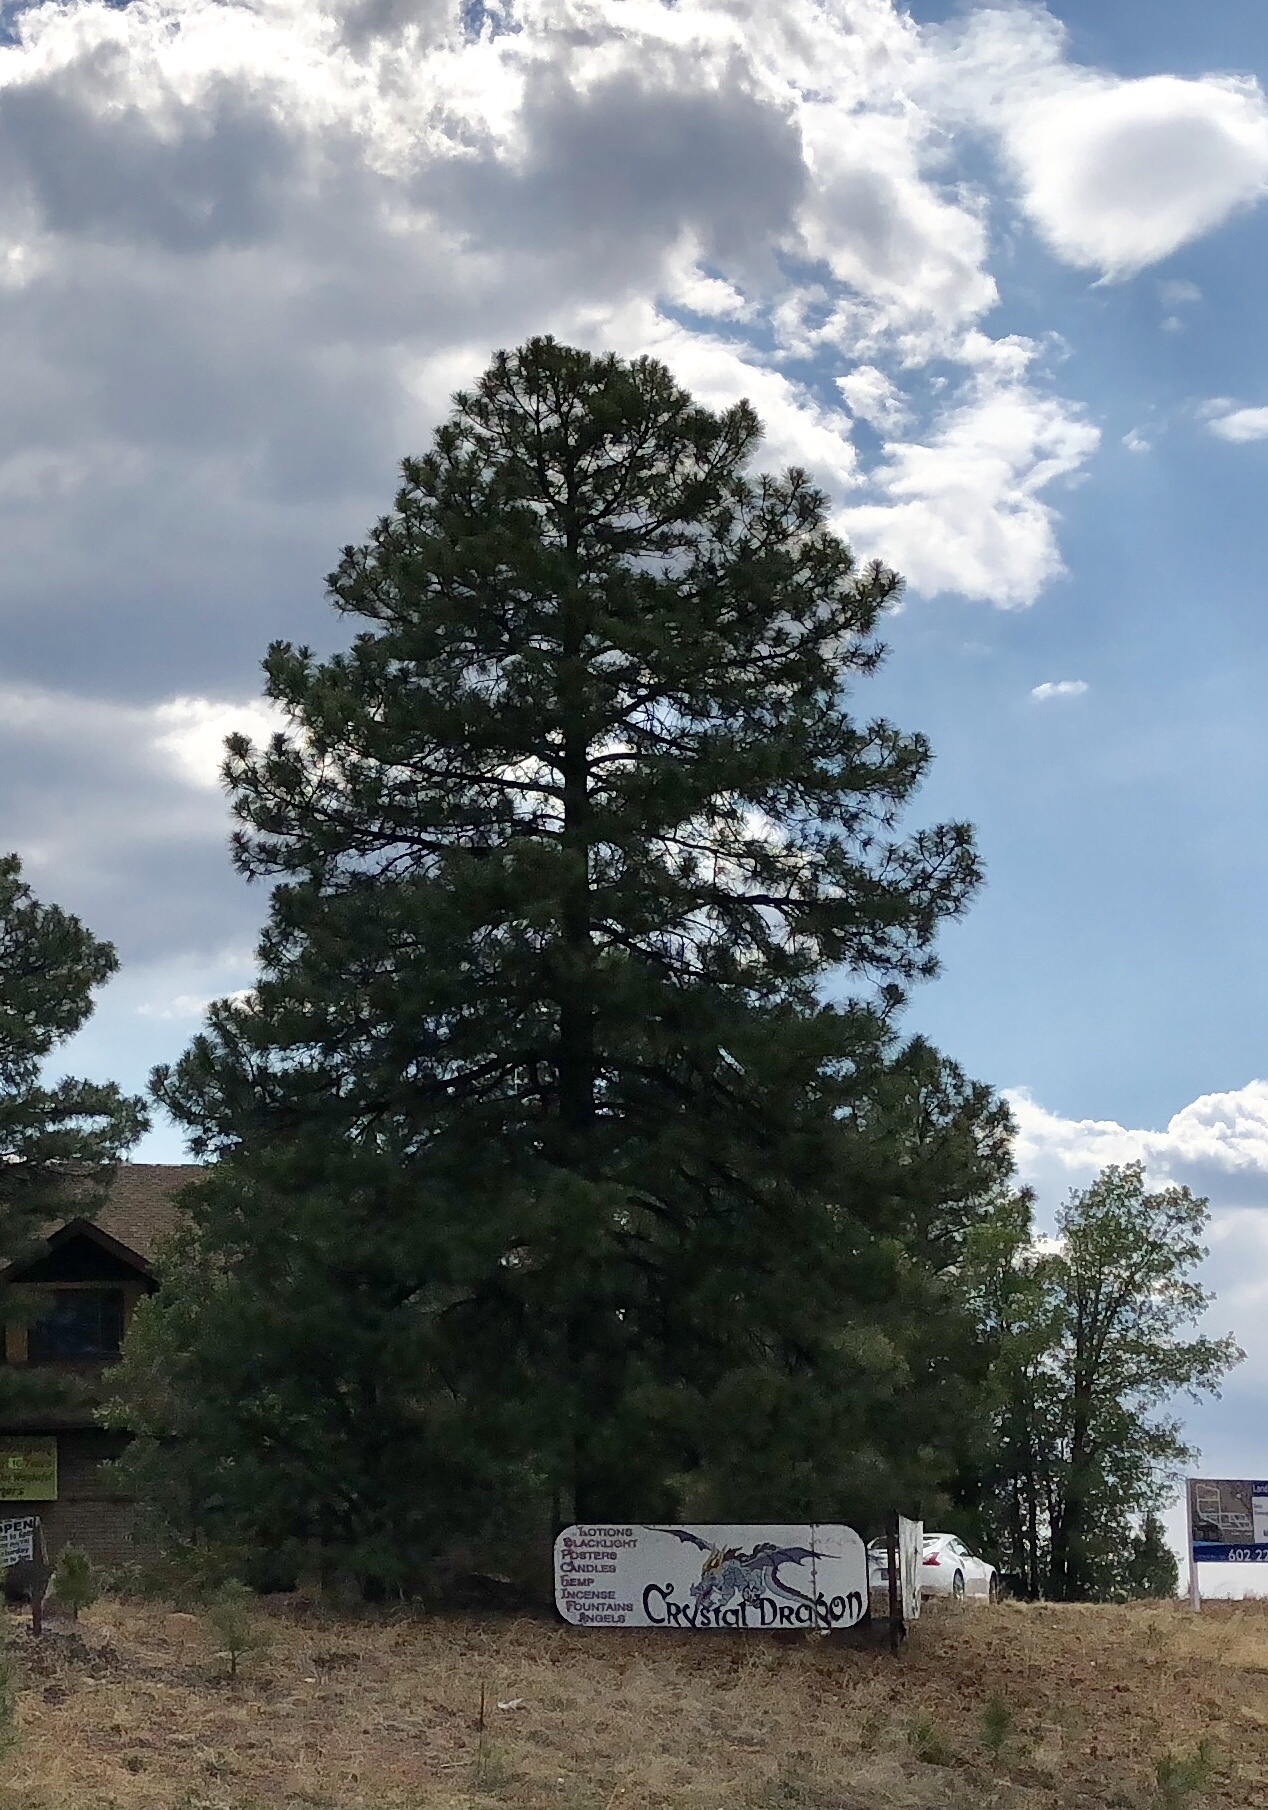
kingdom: Plantae
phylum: Tracheophyta
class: Pinopsida
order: Pinales
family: Pinaceae
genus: Pinus
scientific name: Pinus ponderosa
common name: Western yellow-pine
